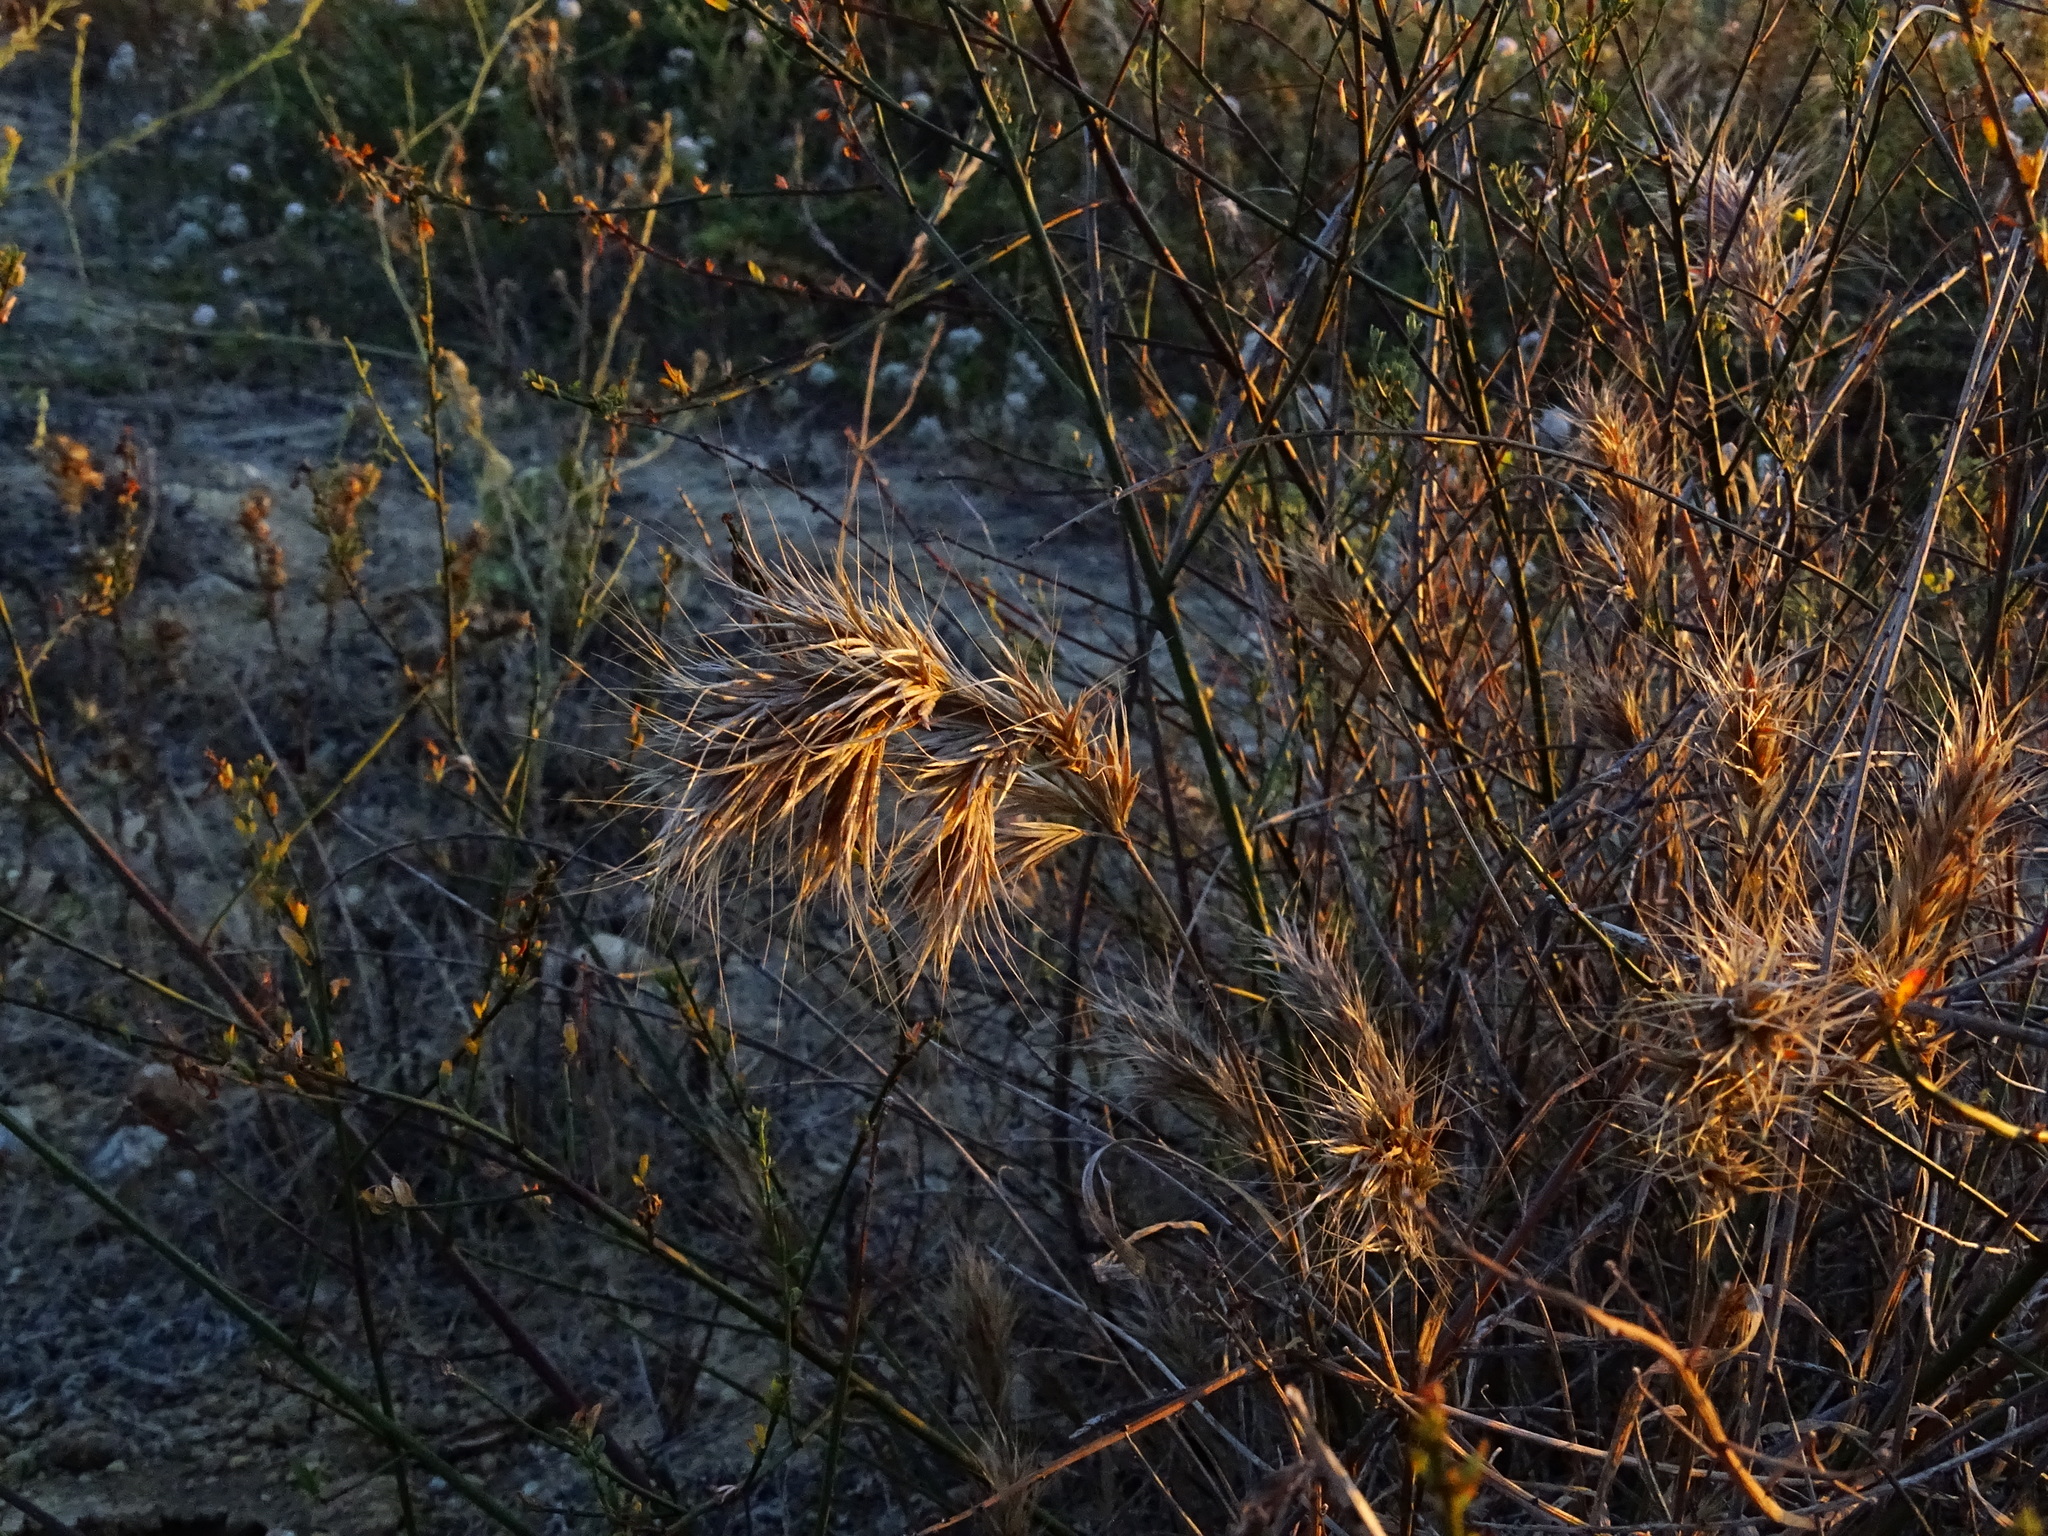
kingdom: Plantae
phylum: Tracheophyta
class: Liliopsida
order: Poales
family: Poaceae
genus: Bromus
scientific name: Bromus madritensis
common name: Compact brome
